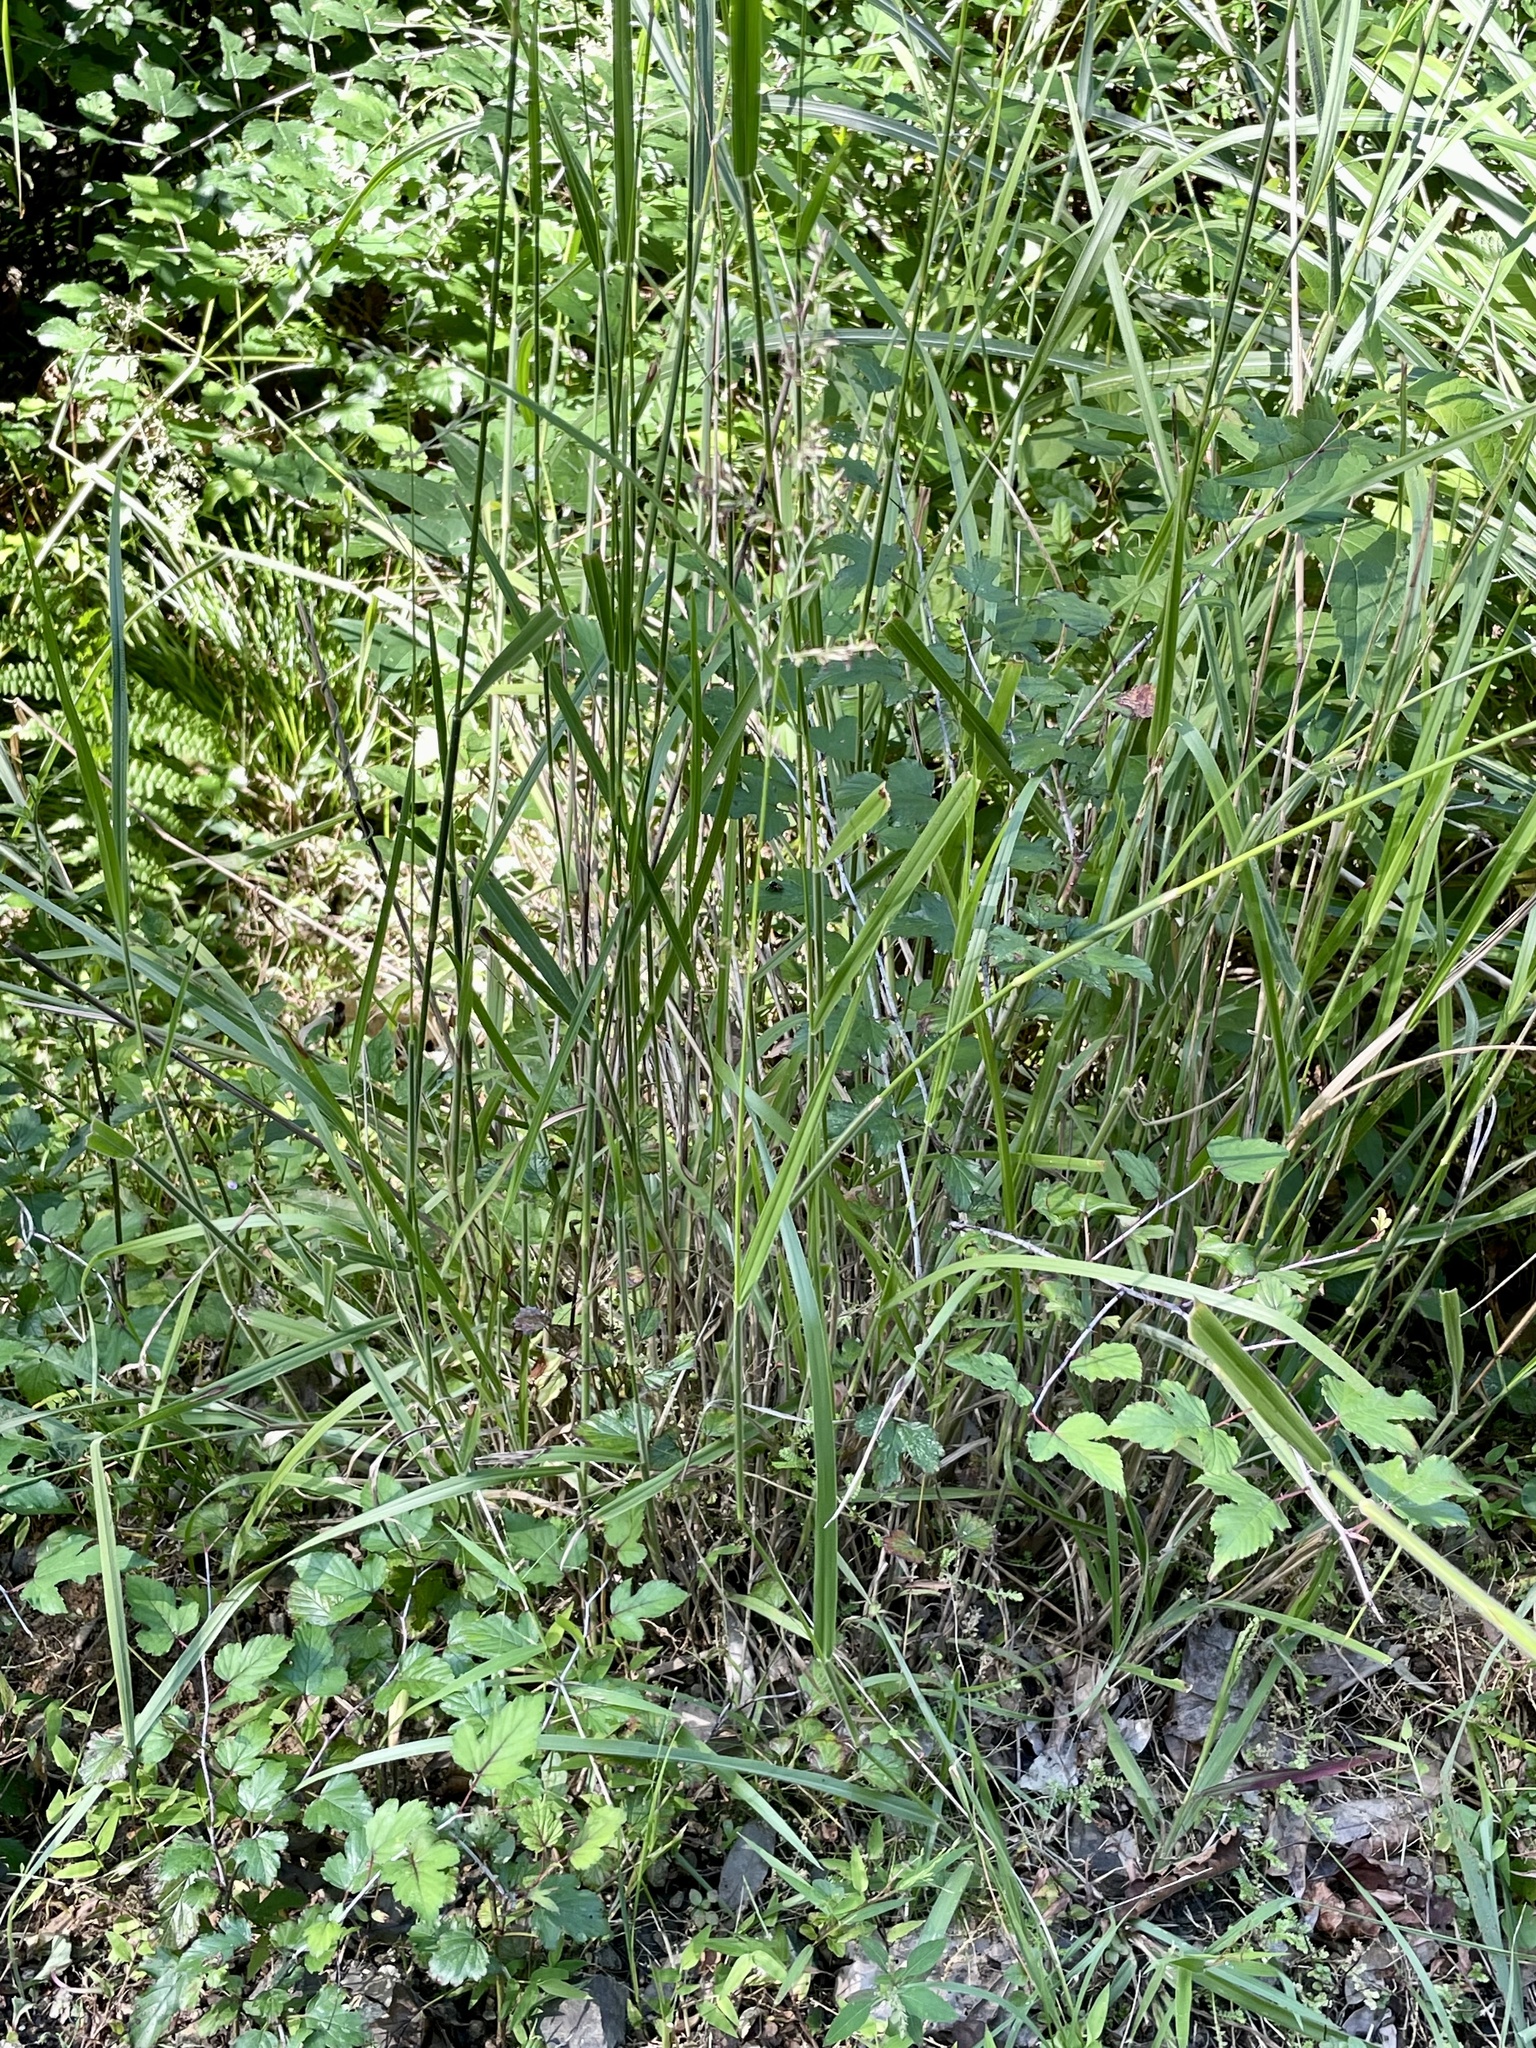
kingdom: Plantae
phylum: Tracheophyta
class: Liliopsida
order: Poales
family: Poaceae
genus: Arundinella
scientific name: Arundinella hirta
